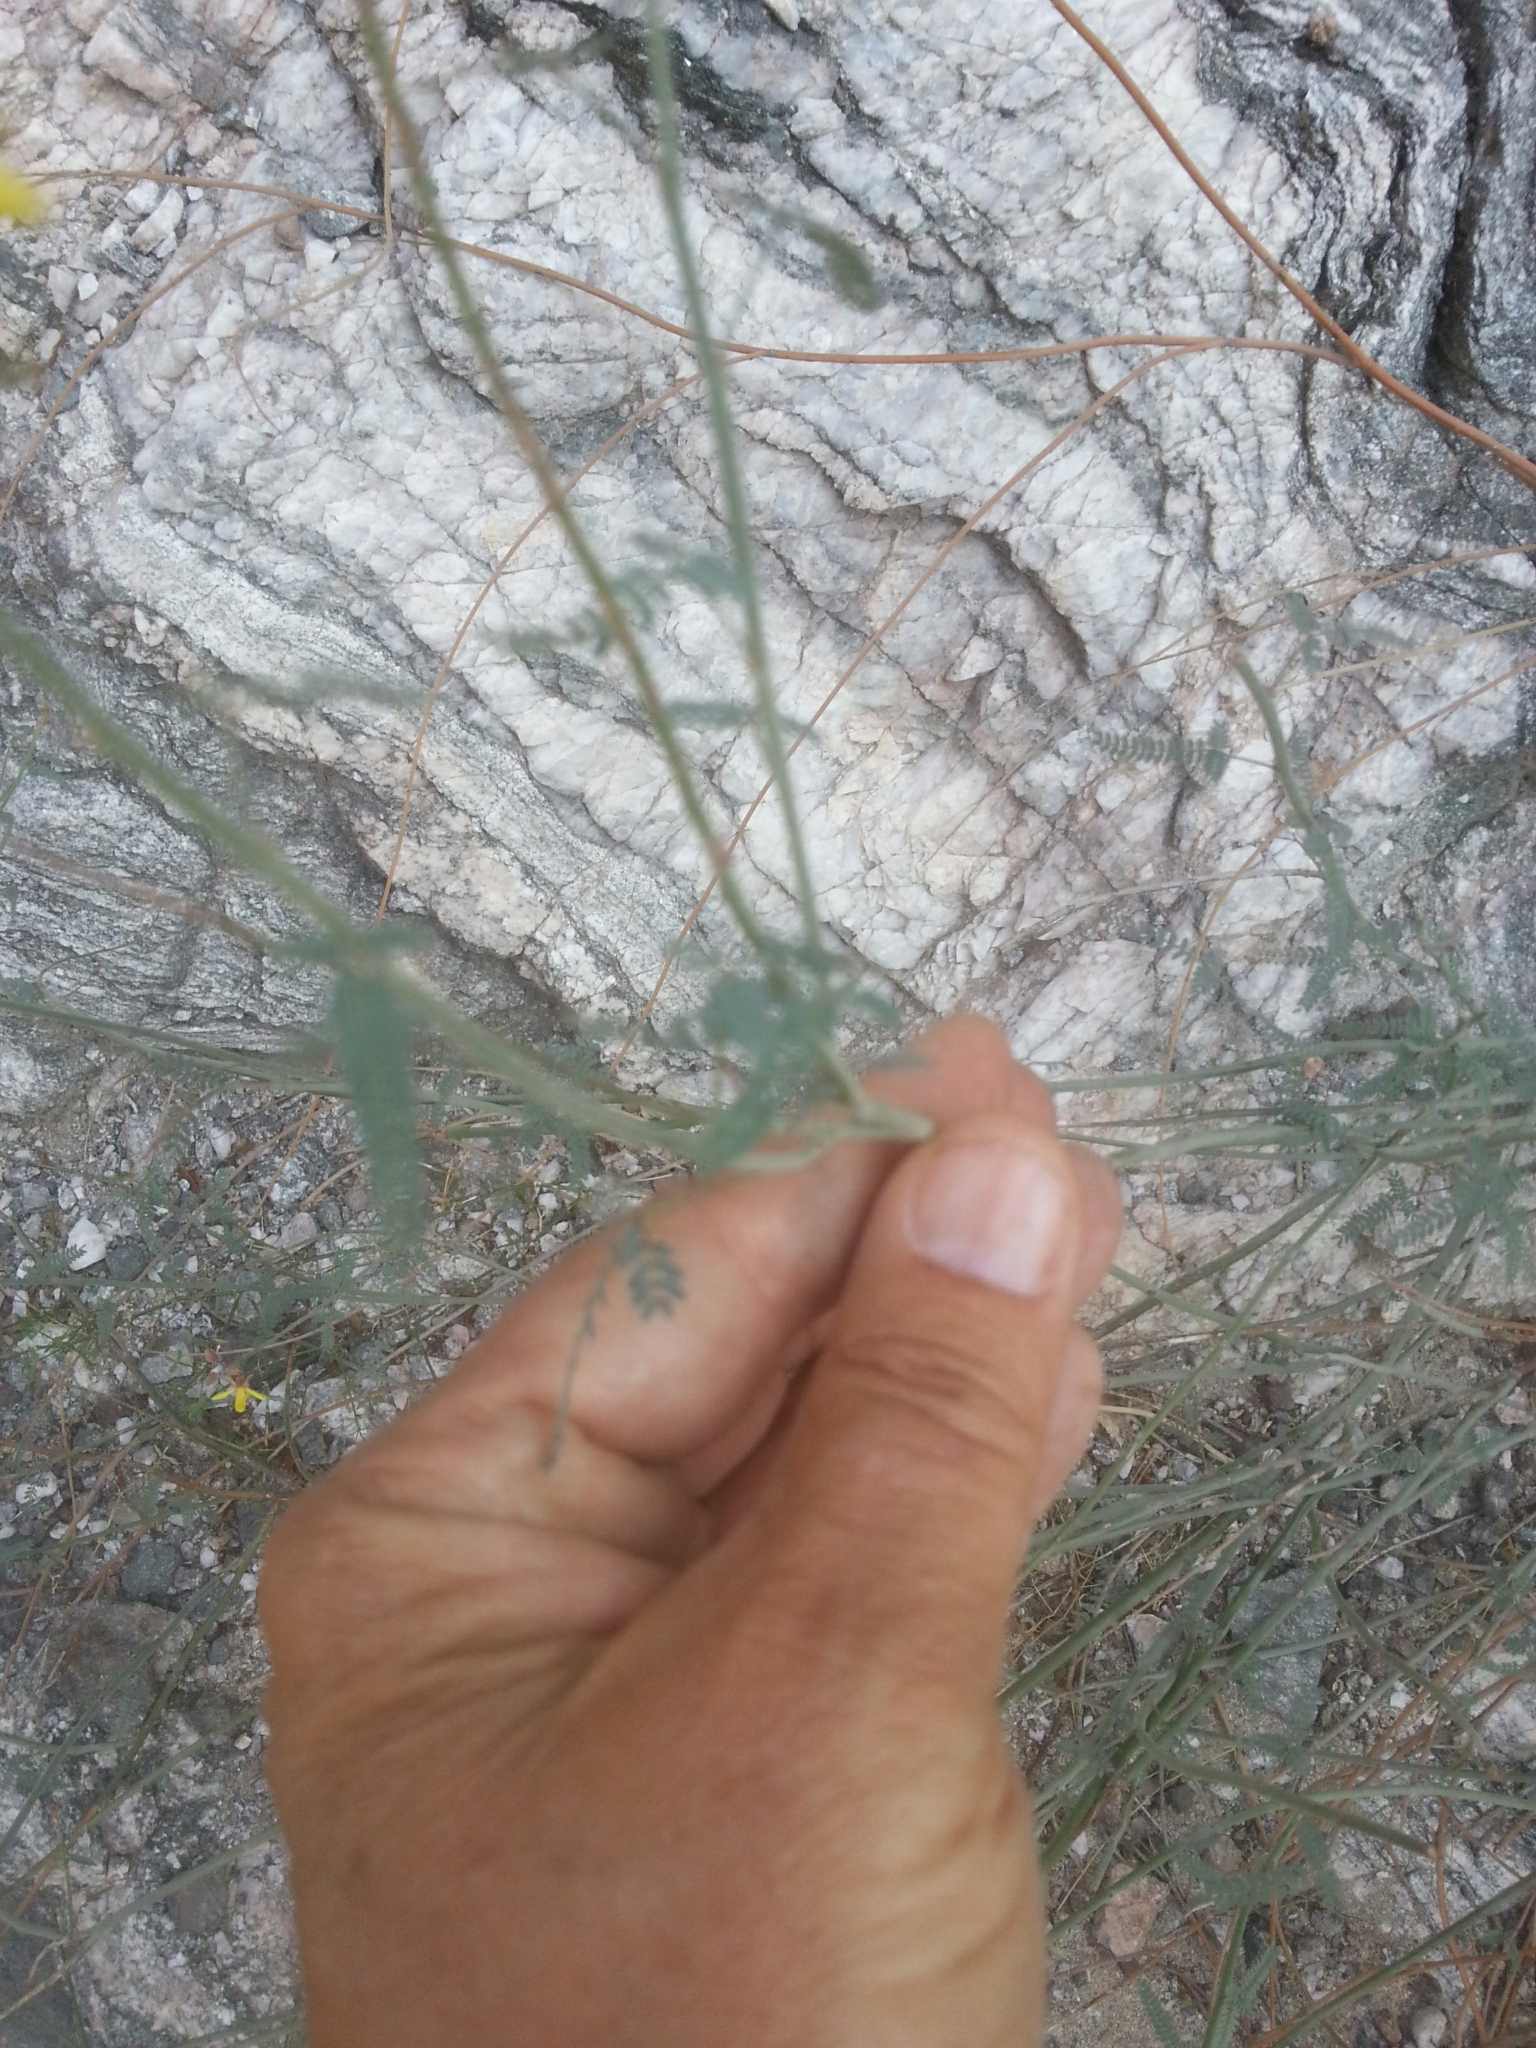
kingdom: Plantae
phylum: Tracheophyta
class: Magnoliopsida
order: Fabales
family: Fabaceae
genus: Hoffmannseggia
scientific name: Hoffmannseggia microphylla
